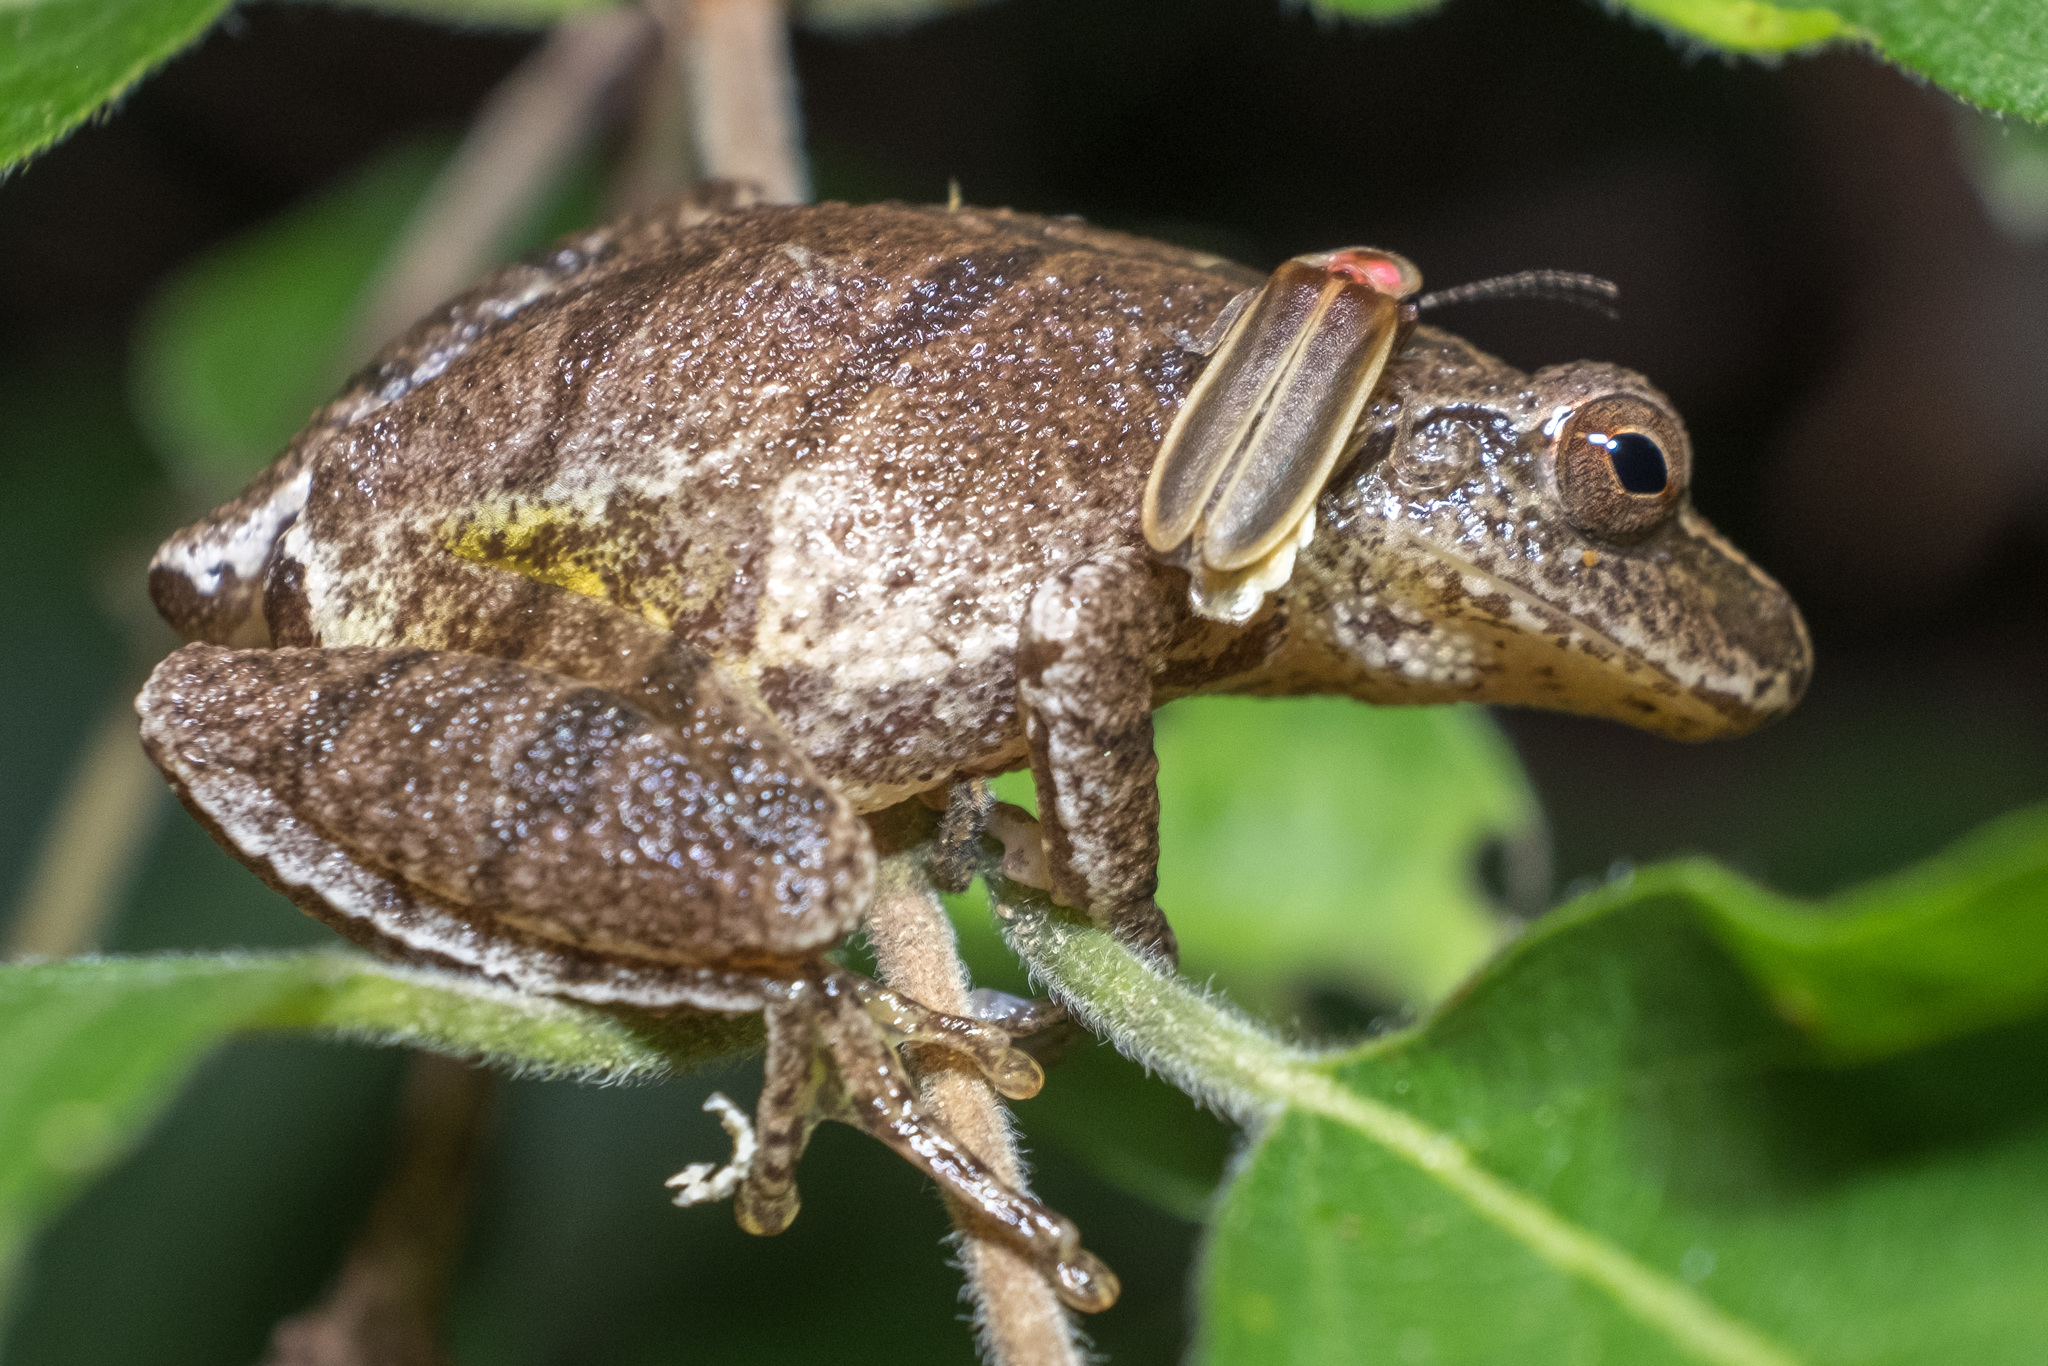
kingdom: Animalia
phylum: Chordata
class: Amphibia
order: Anura
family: Hylidae
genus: Pseudacris
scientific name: Pseudacris crucifer
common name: Spring peeper
